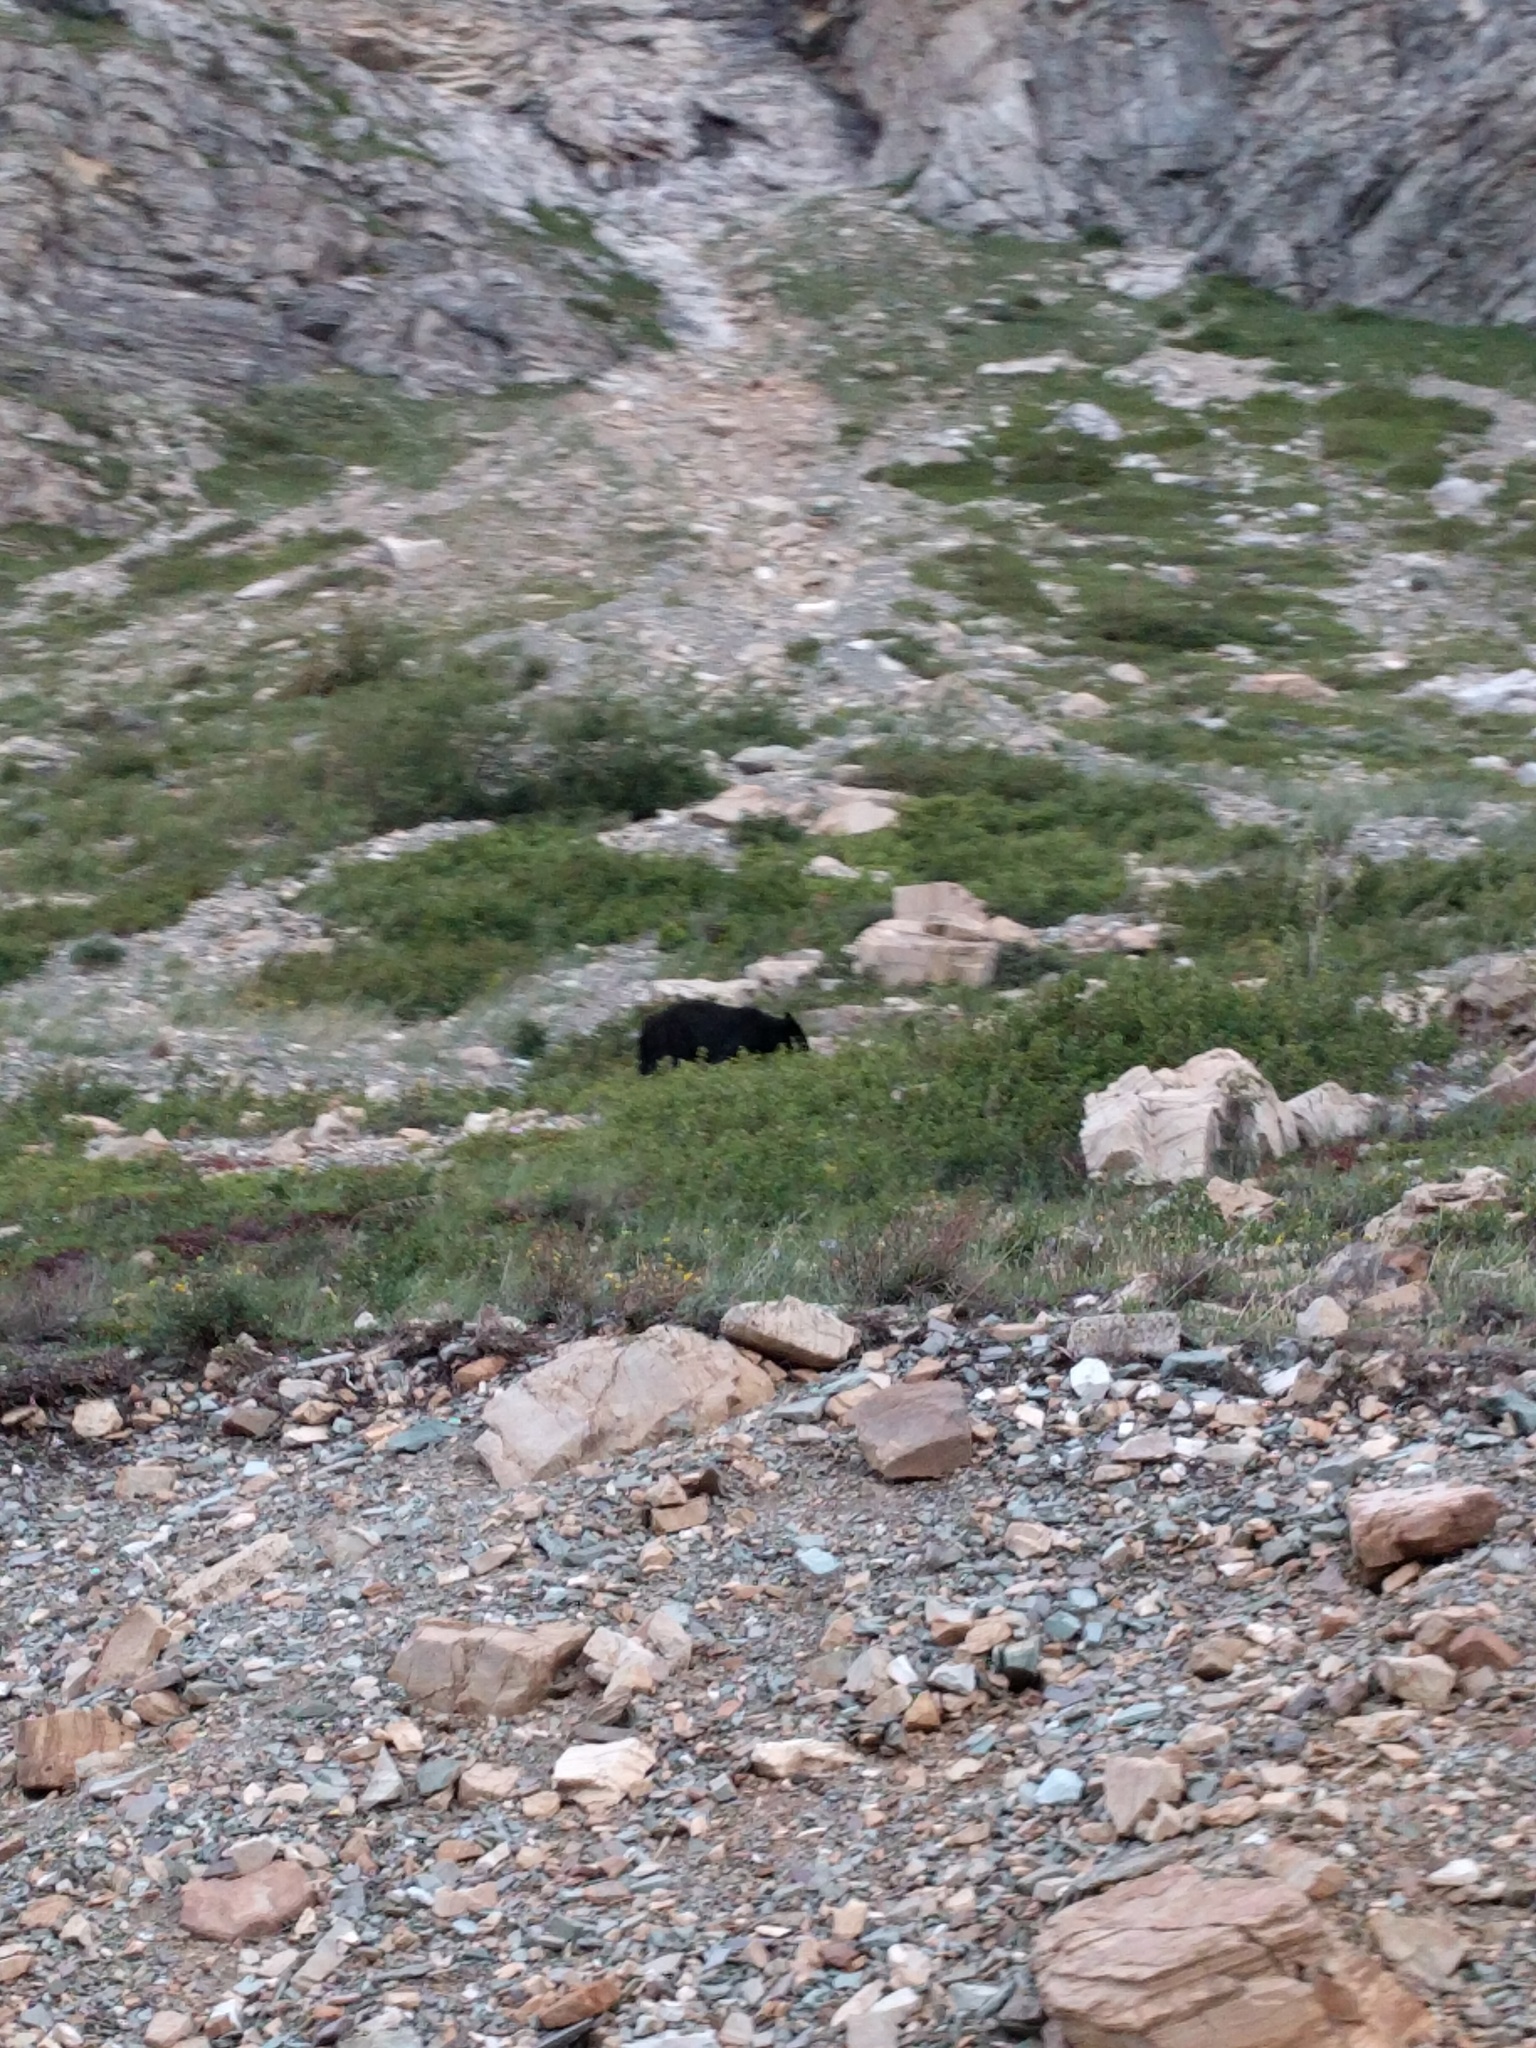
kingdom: Animalia
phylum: Chordata
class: Mammalia
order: Carnivora
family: Ursidae
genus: Ursus
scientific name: Ursus americanus
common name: American black bear
